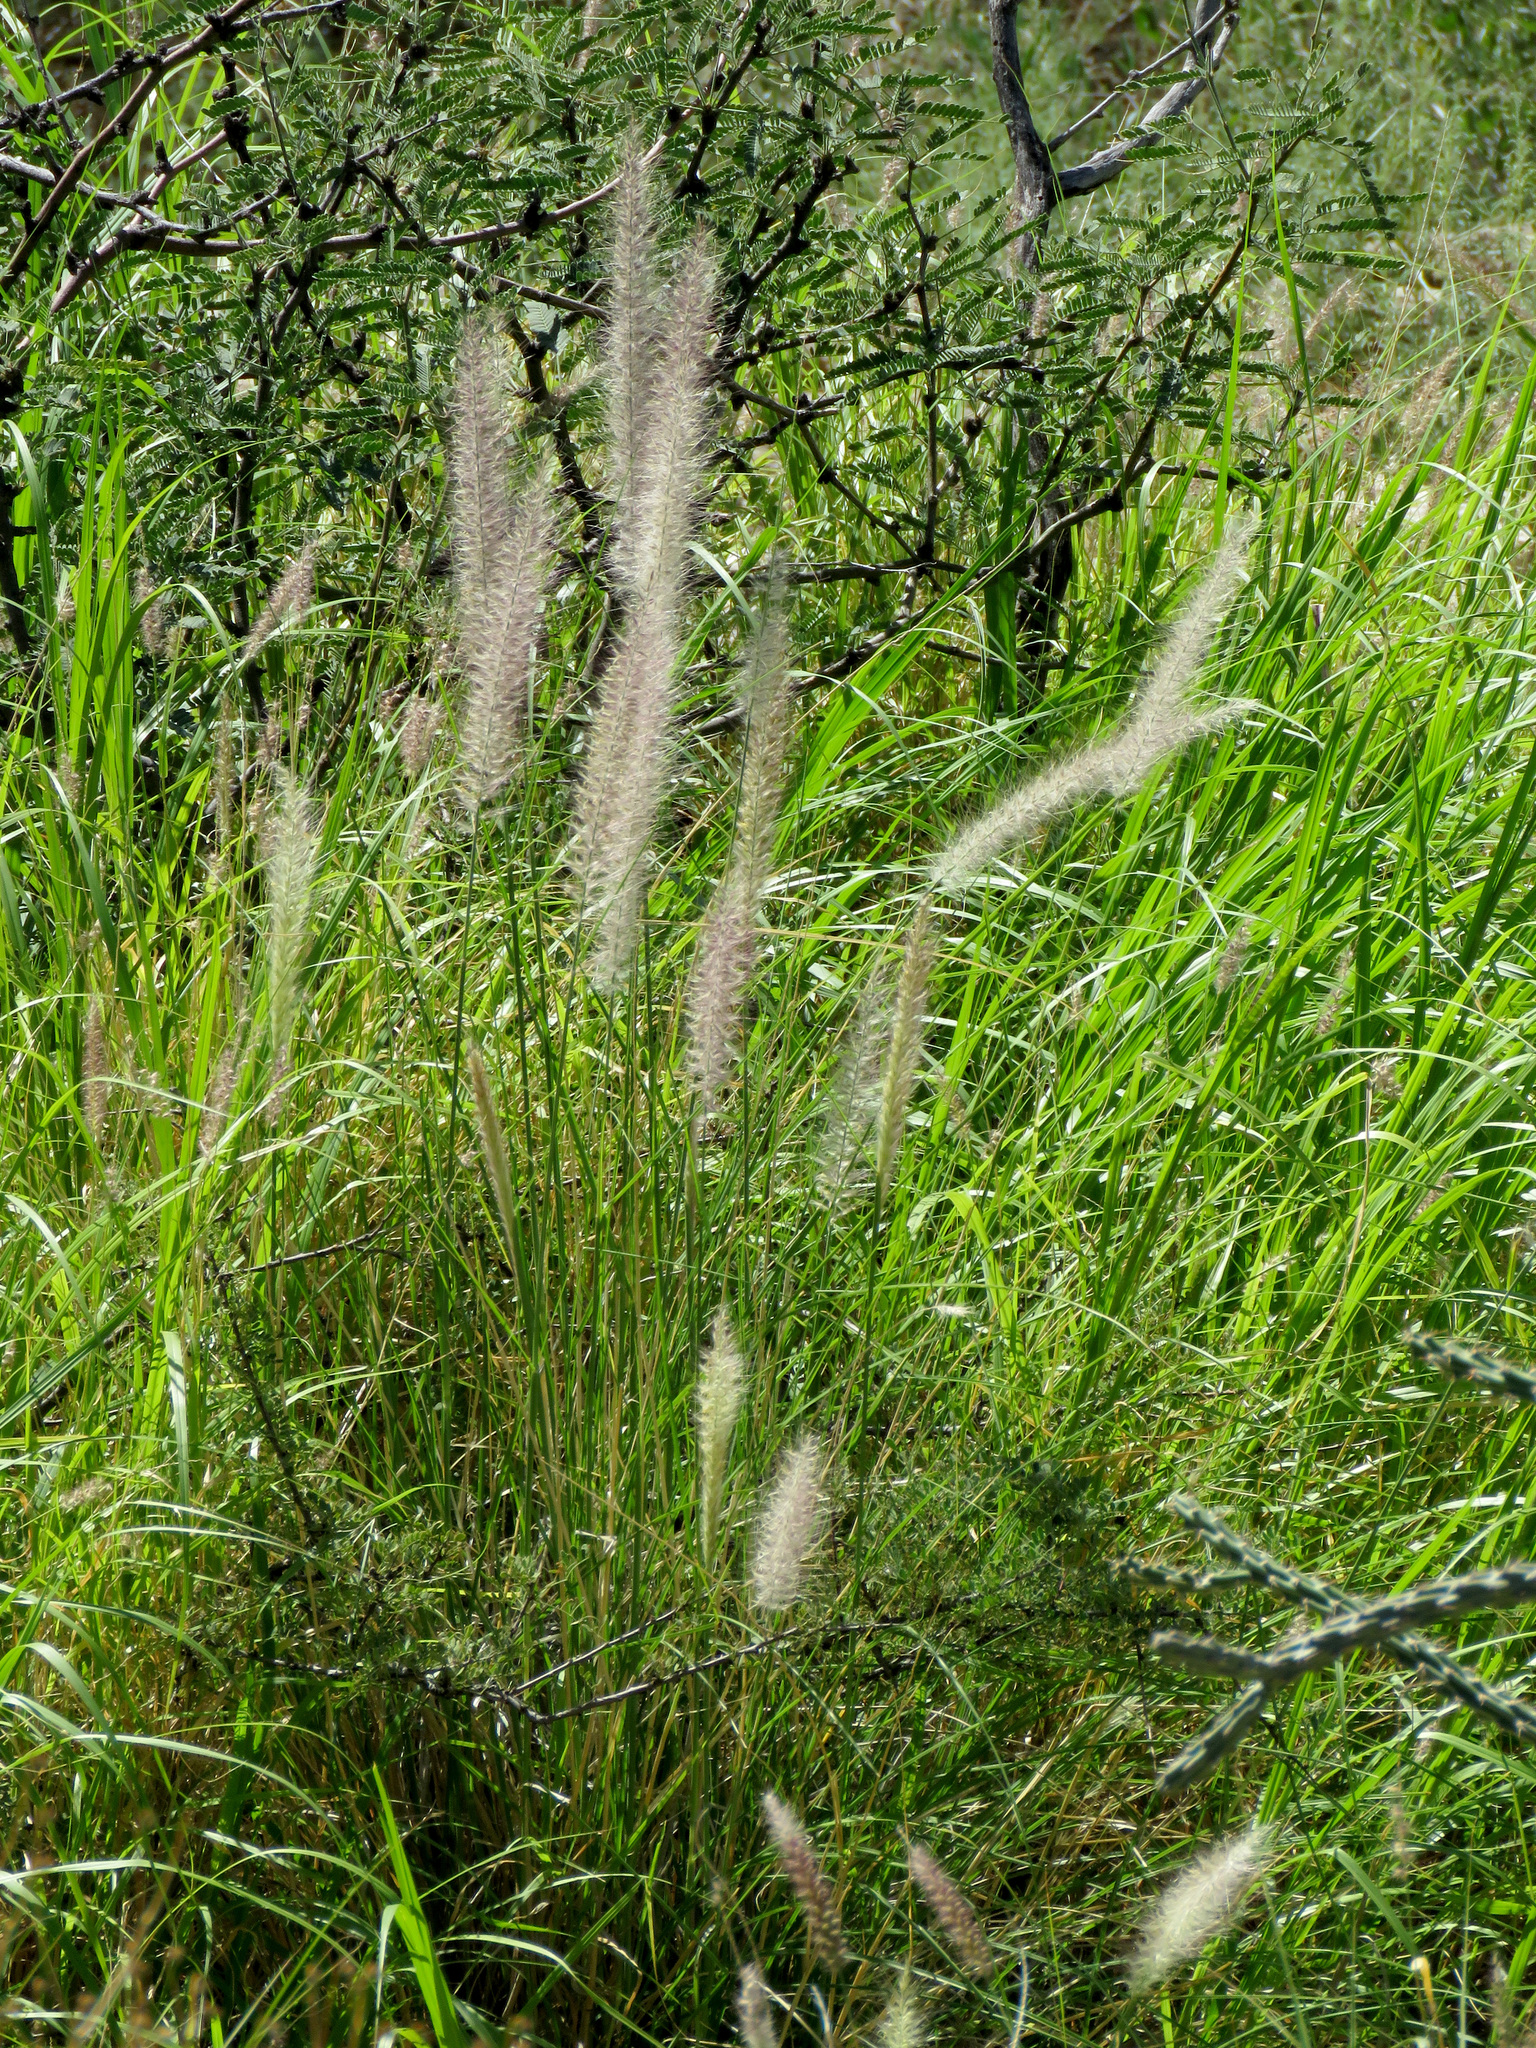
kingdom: Plantae
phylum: Tracheophyta
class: Liliopsida
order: Poales
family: Poaceae
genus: Cenchrus
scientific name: Cenchrus setaceus
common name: Crimson fountaingrass
